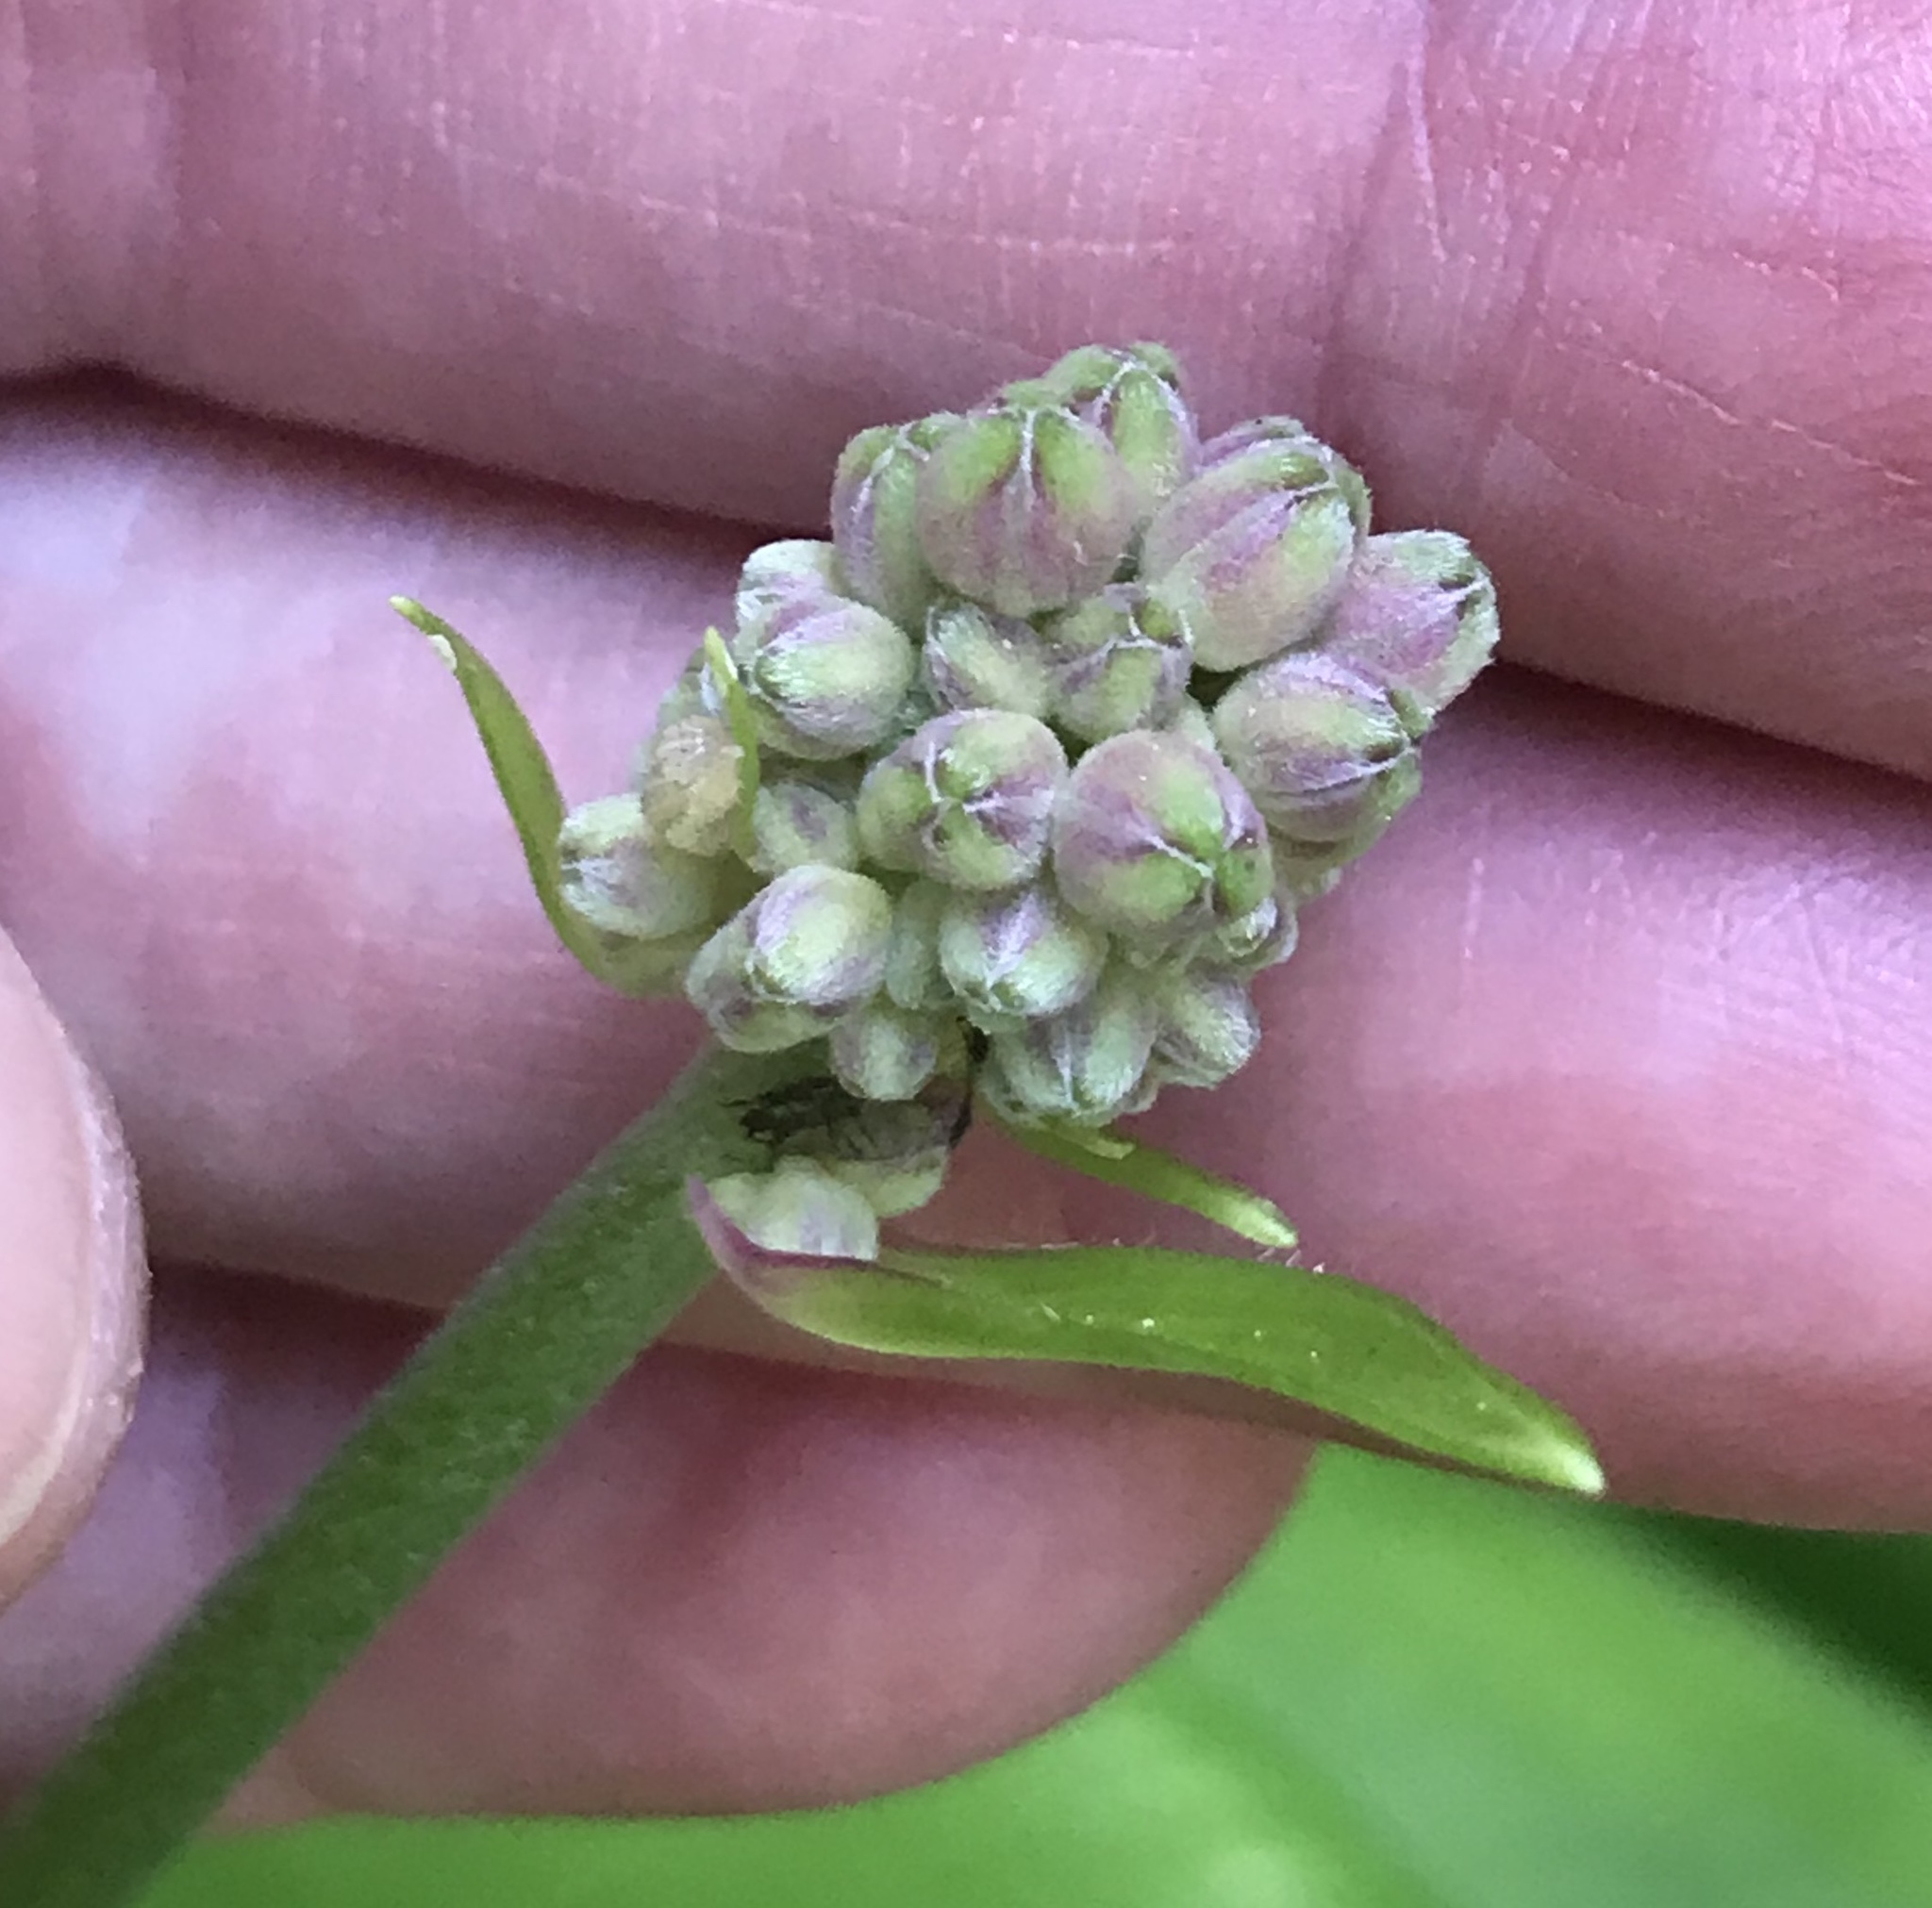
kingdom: Plantae
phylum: Tracheophyta
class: Liliopsida
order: Liliales
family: Liliaceae
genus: Clintonia
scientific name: Clintonia andrewsiana
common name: Red clintonia
